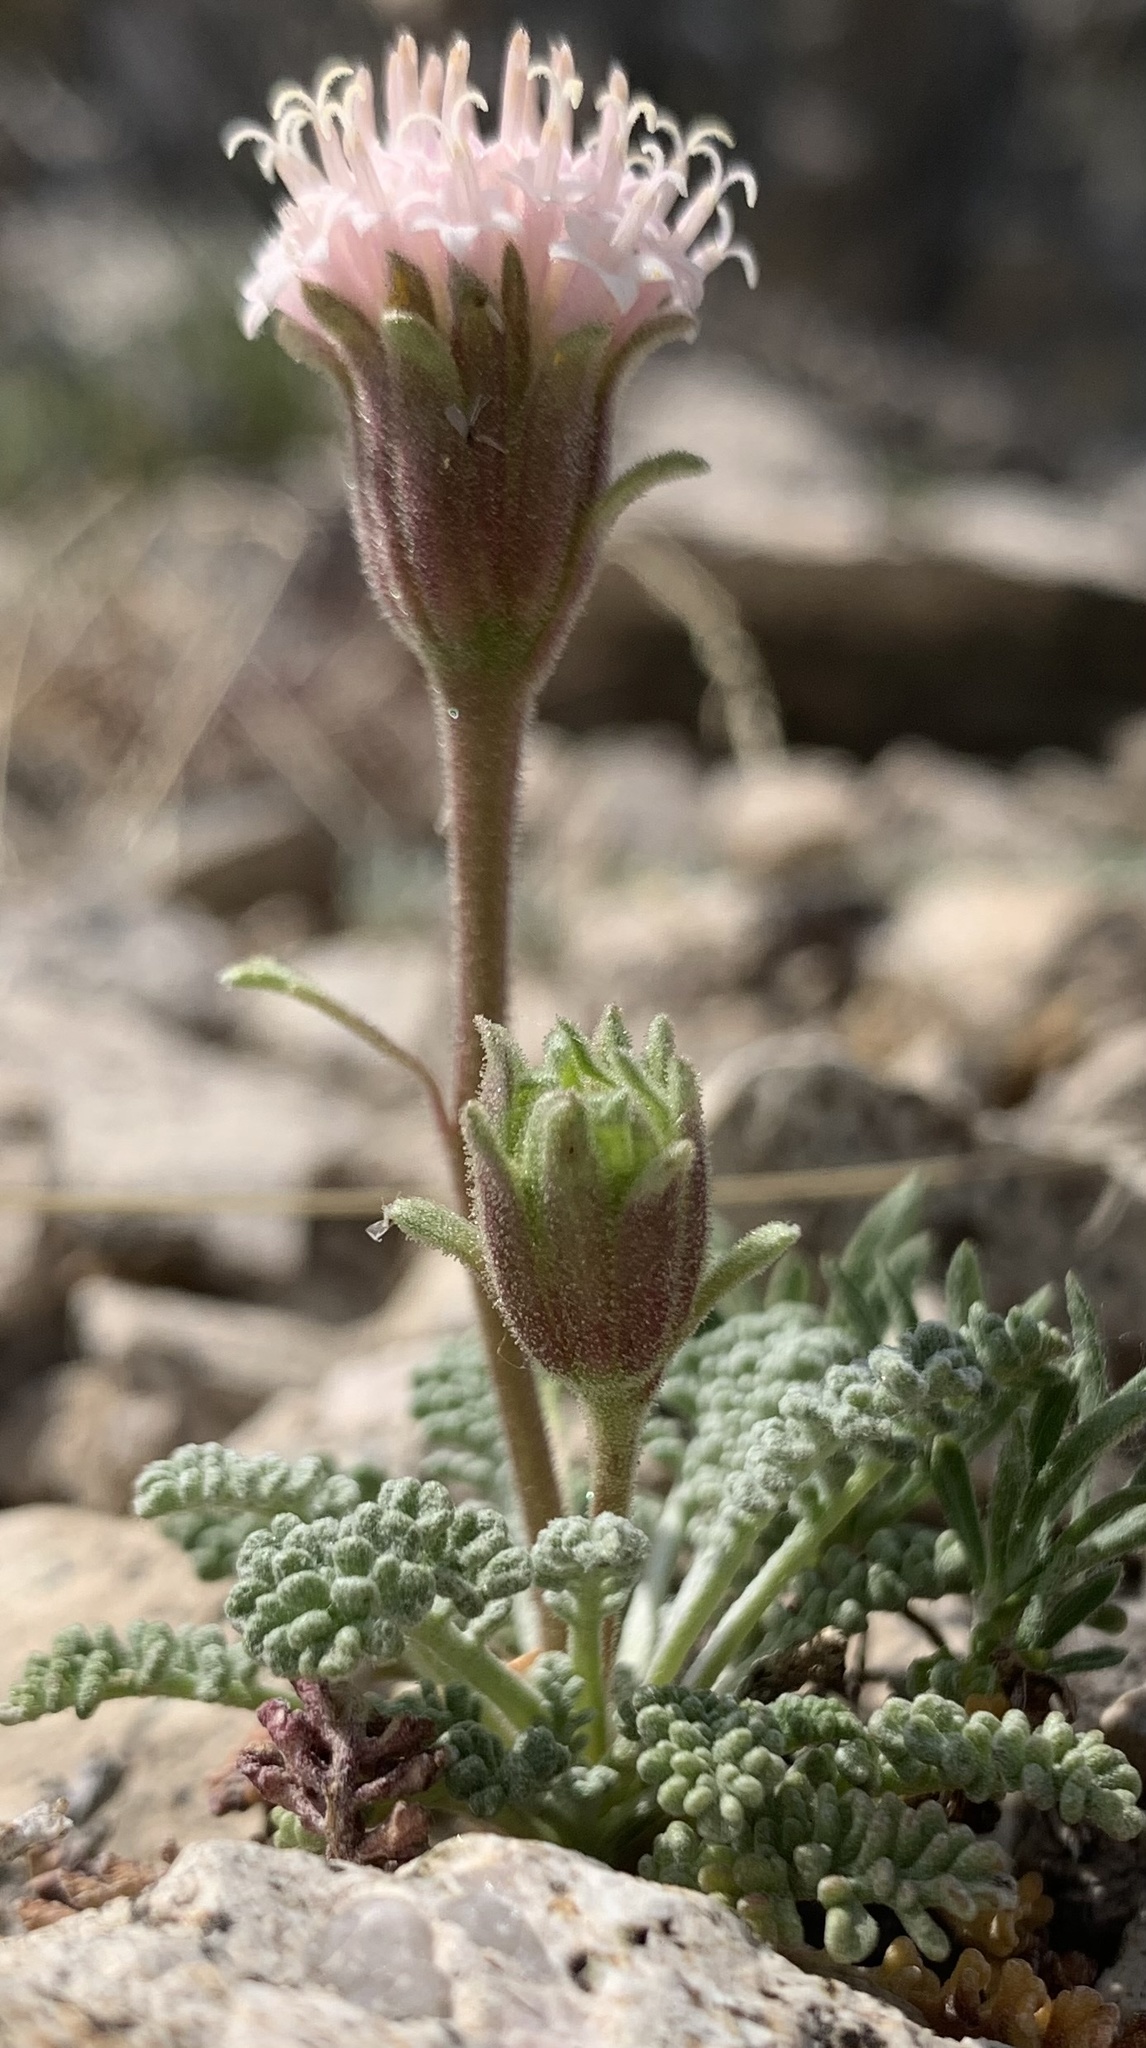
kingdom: Plantae
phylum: Tracheophyta
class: Magnoliopsida
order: Asterales
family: Asteraceae
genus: Chaenactis
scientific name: Chaenactis douglasii
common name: Hoary pincushion
